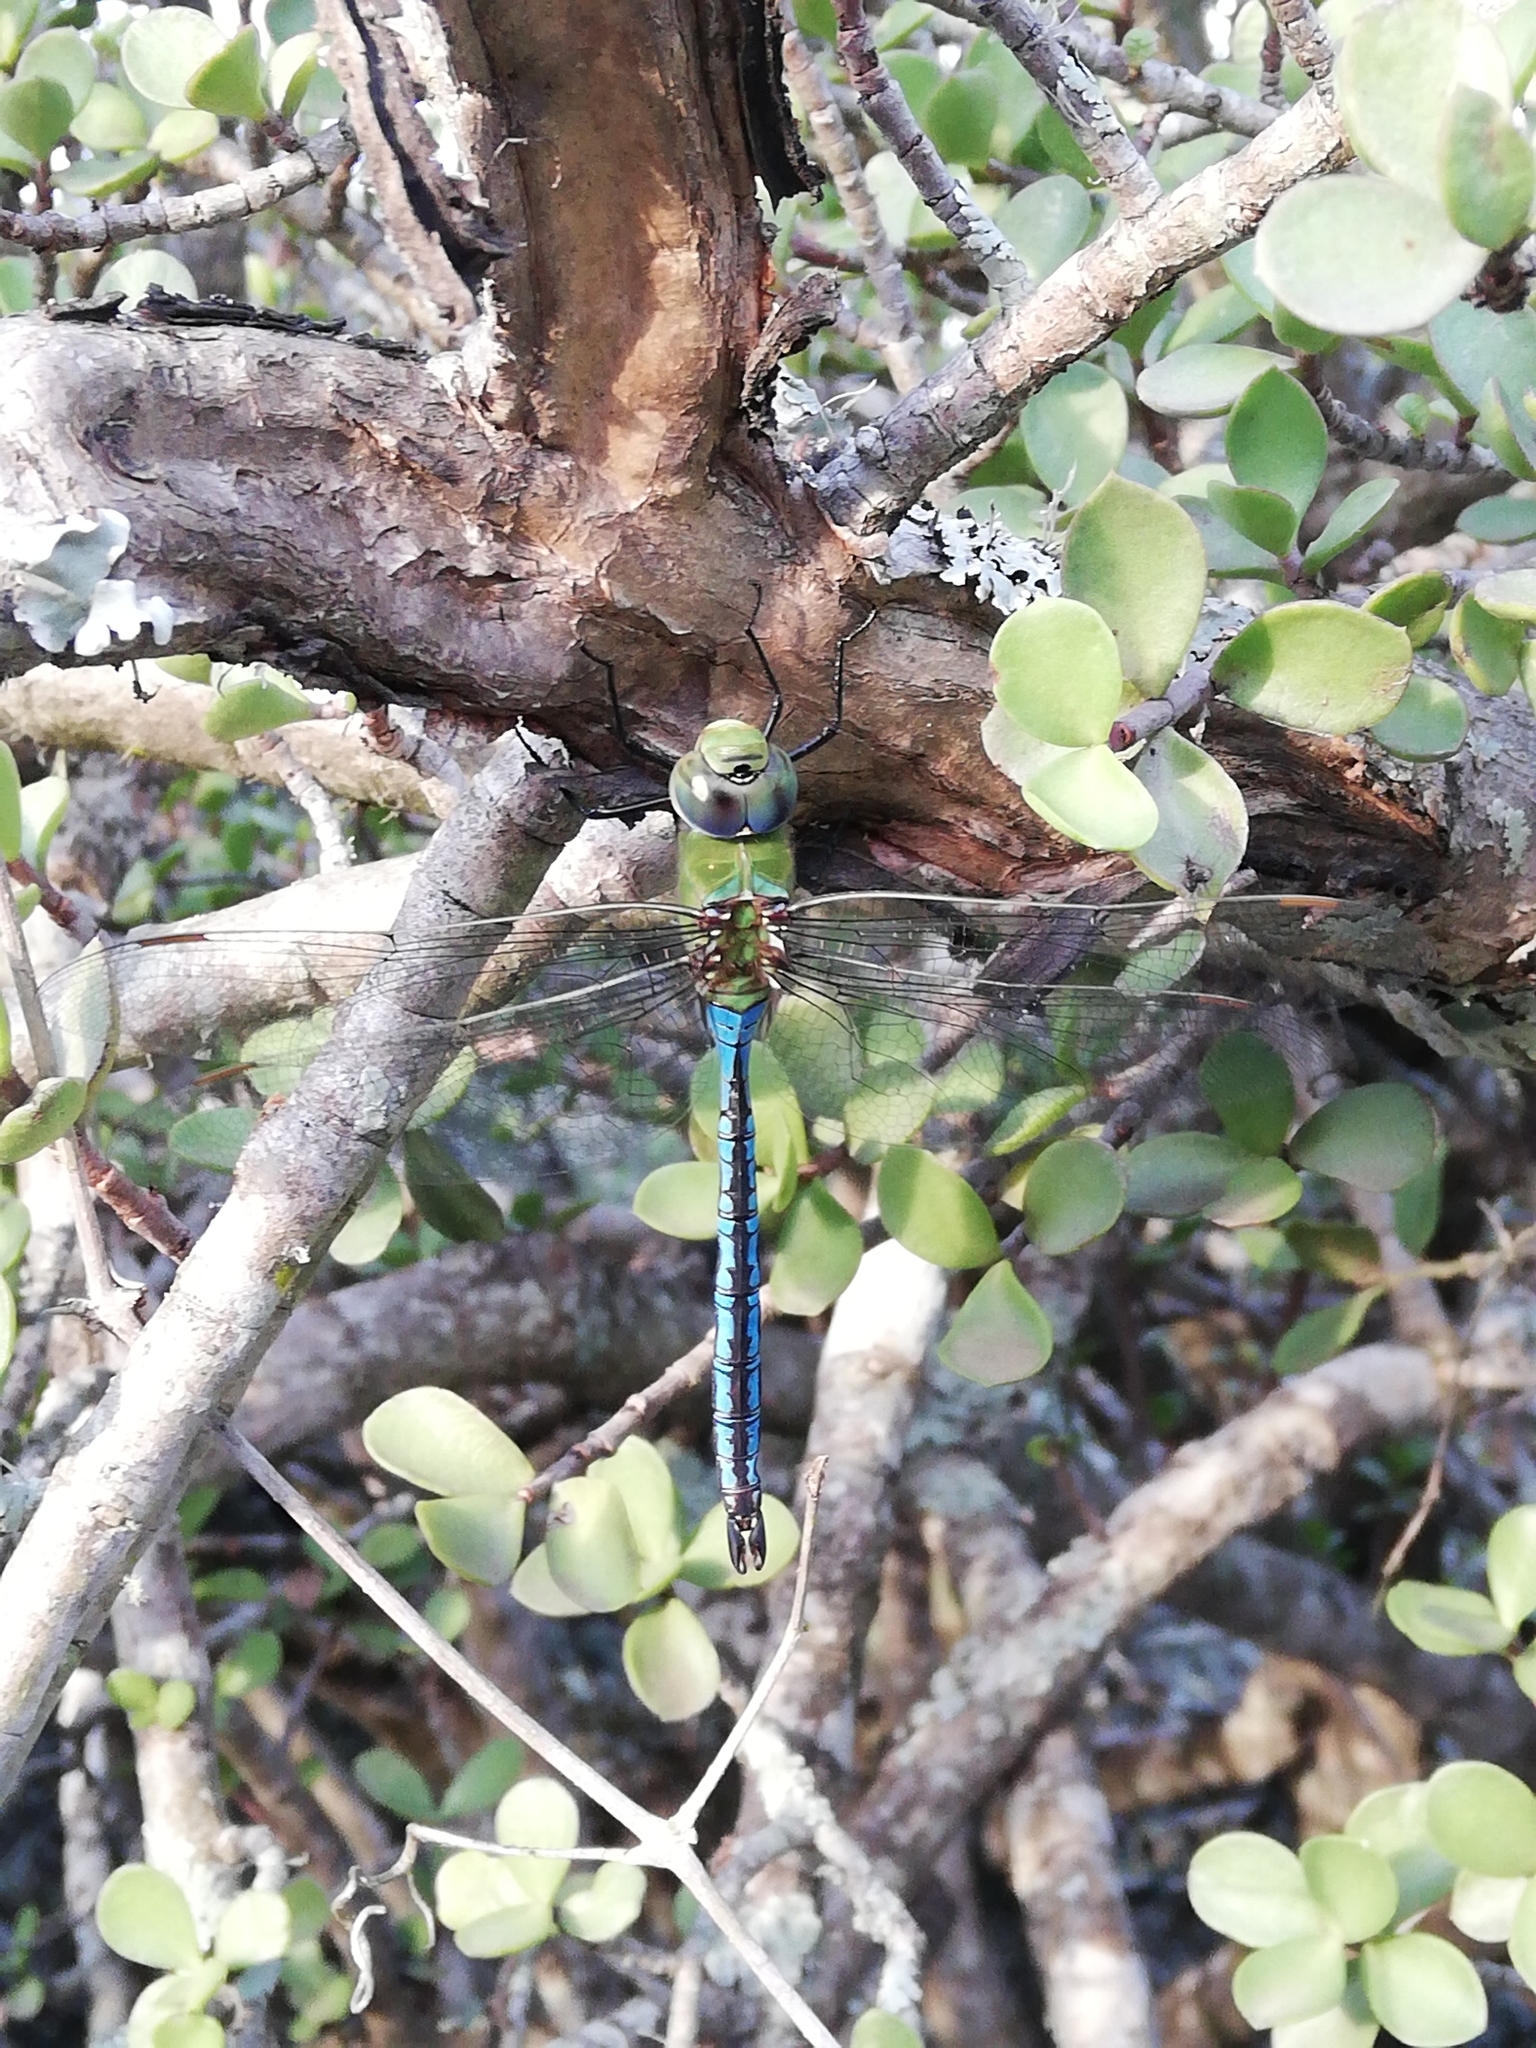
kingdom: Animalia
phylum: Arthropoda
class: Insecta
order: Odonata
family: Aeshnidae
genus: Anax
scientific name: Anax imperator
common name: Emperor dragonfly
